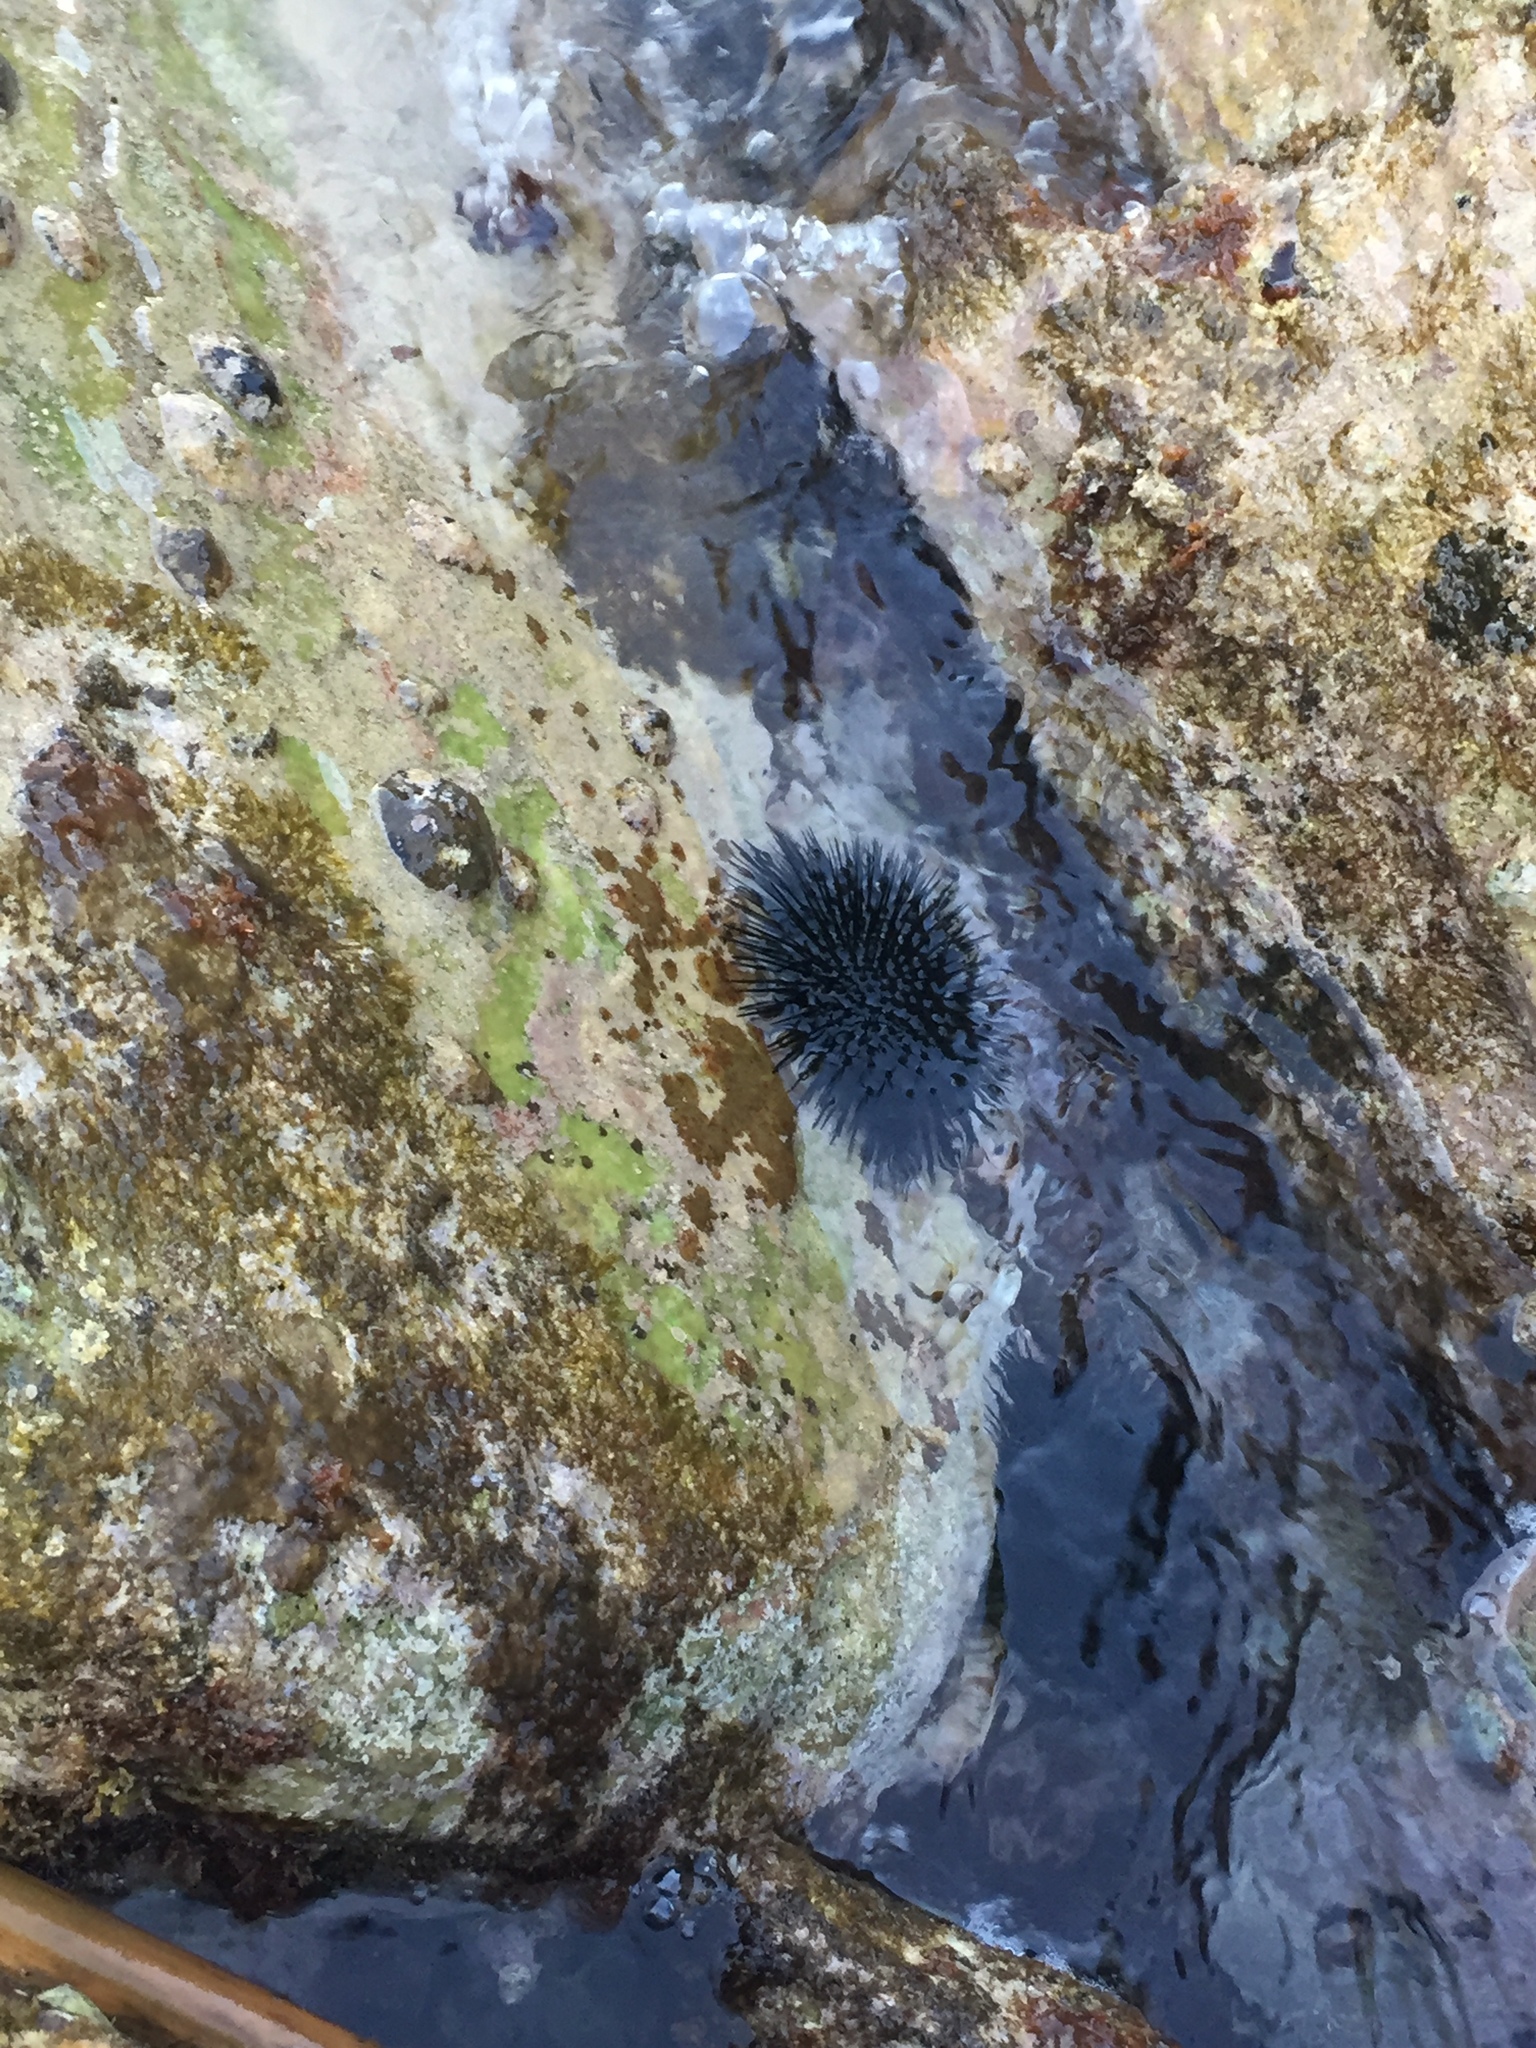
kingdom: Animalia
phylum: Echinodermata
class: Echinoidea
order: Arbacioida
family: Arbaciidae
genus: Arbacia
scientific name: Arbacia lixula
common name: Black sea urchin
